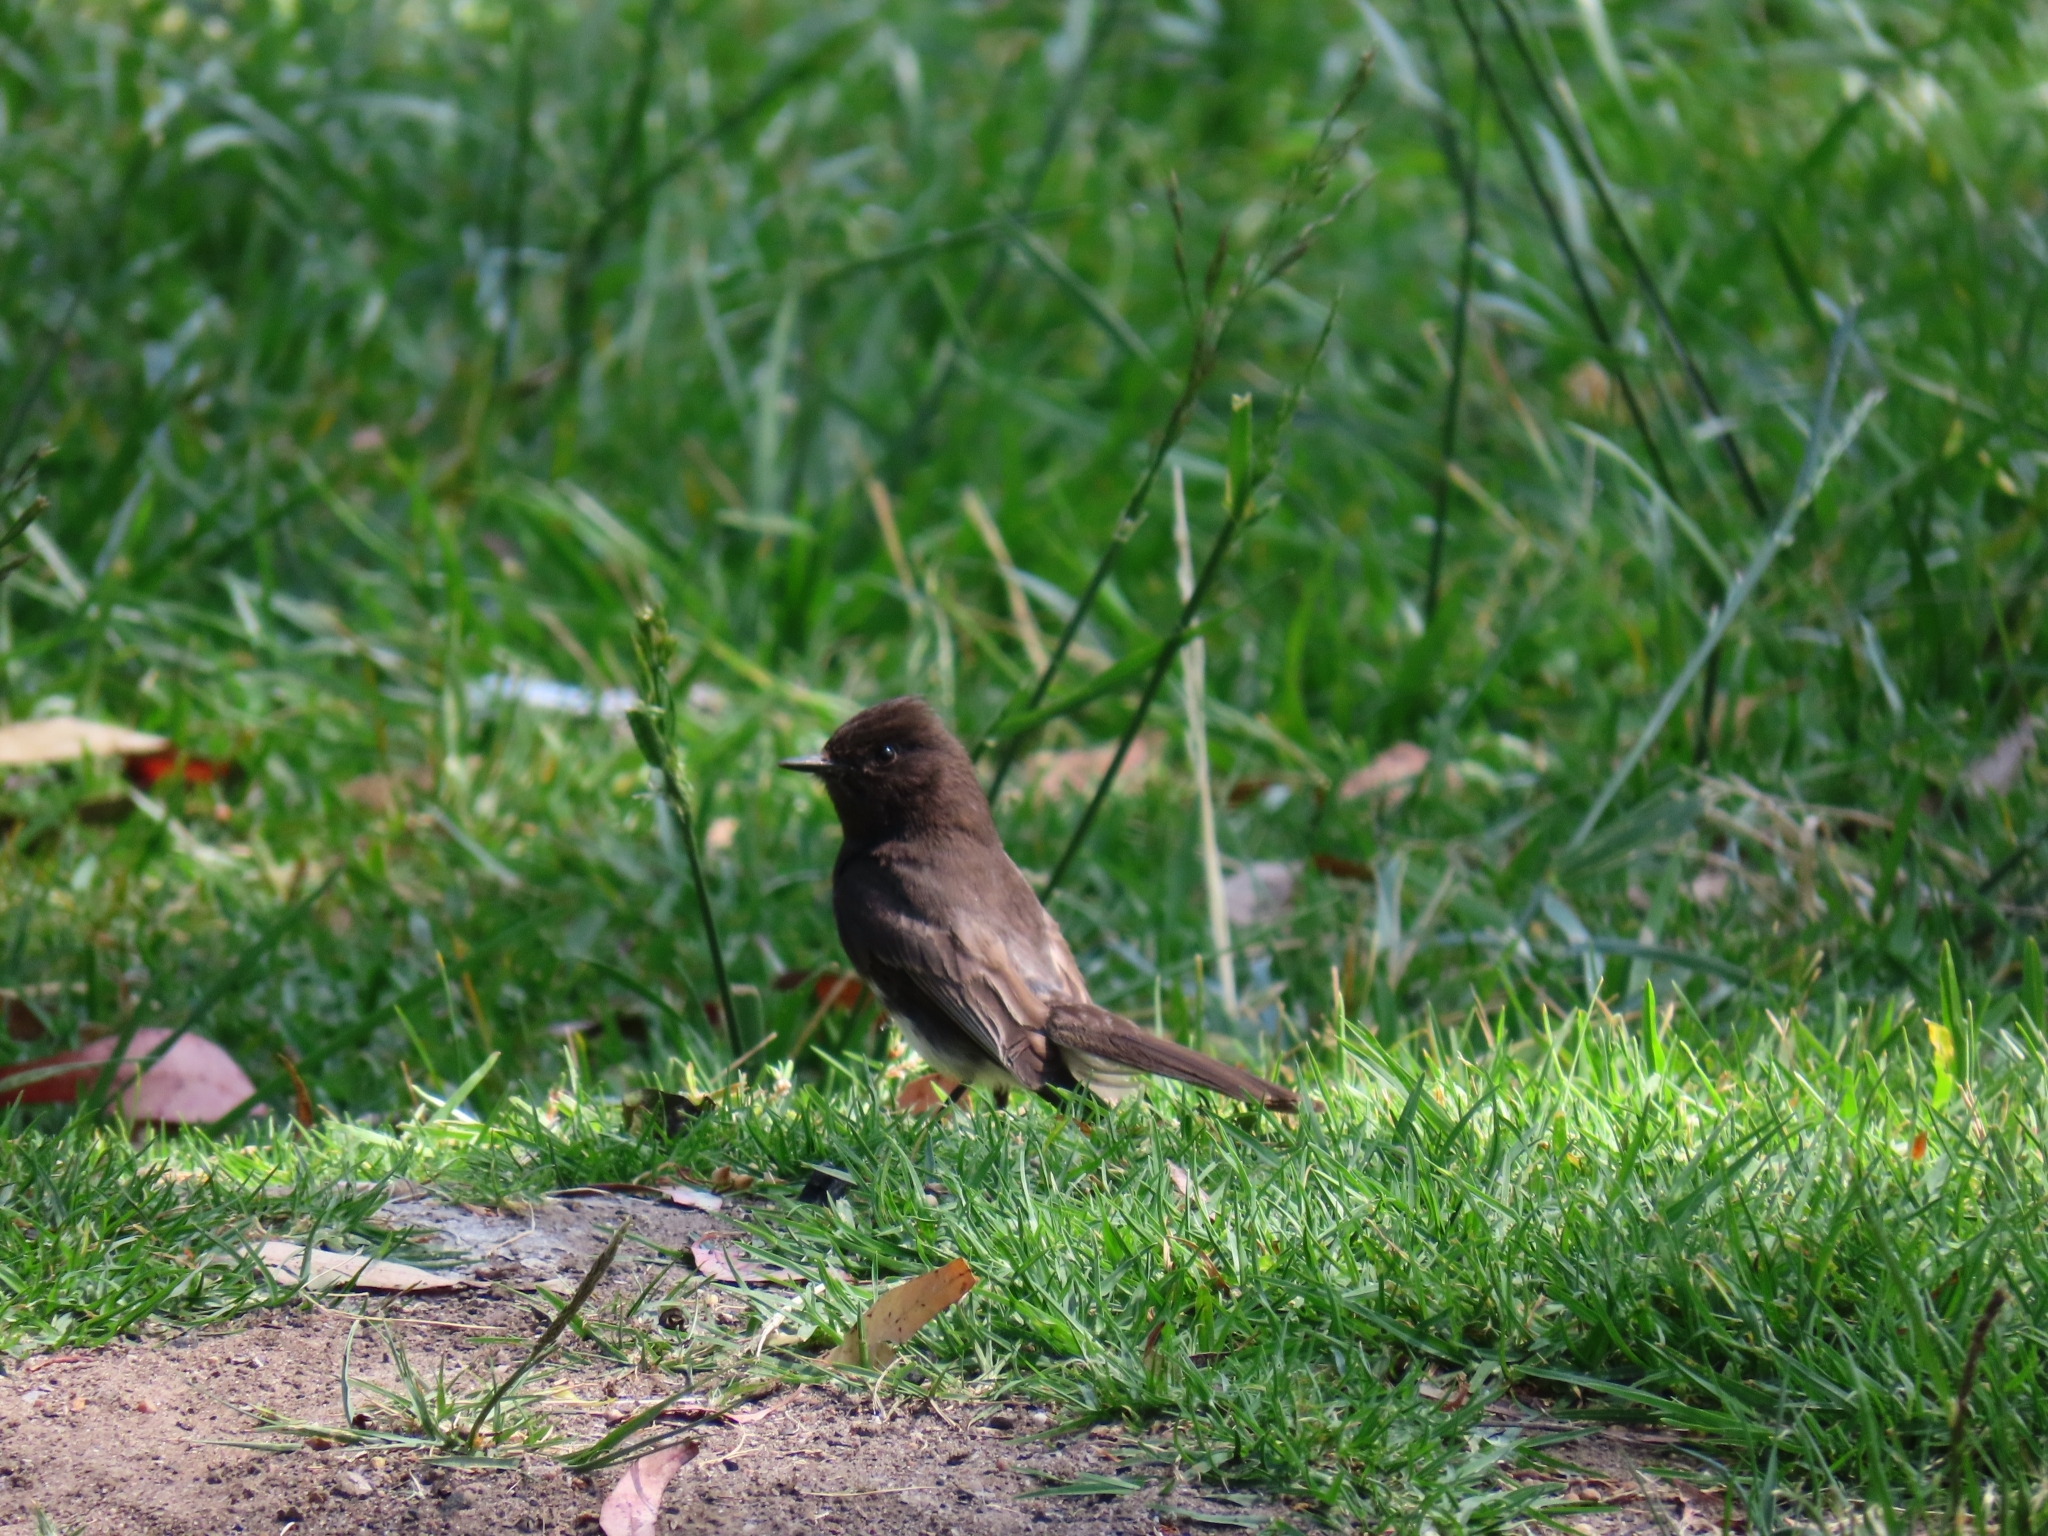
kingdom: Animalia
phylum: Chordata
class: Aves
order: Passeriformes
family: Tyrannidae
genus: Sayornis
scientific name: Sayornis nigricans
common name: Black phoebe
